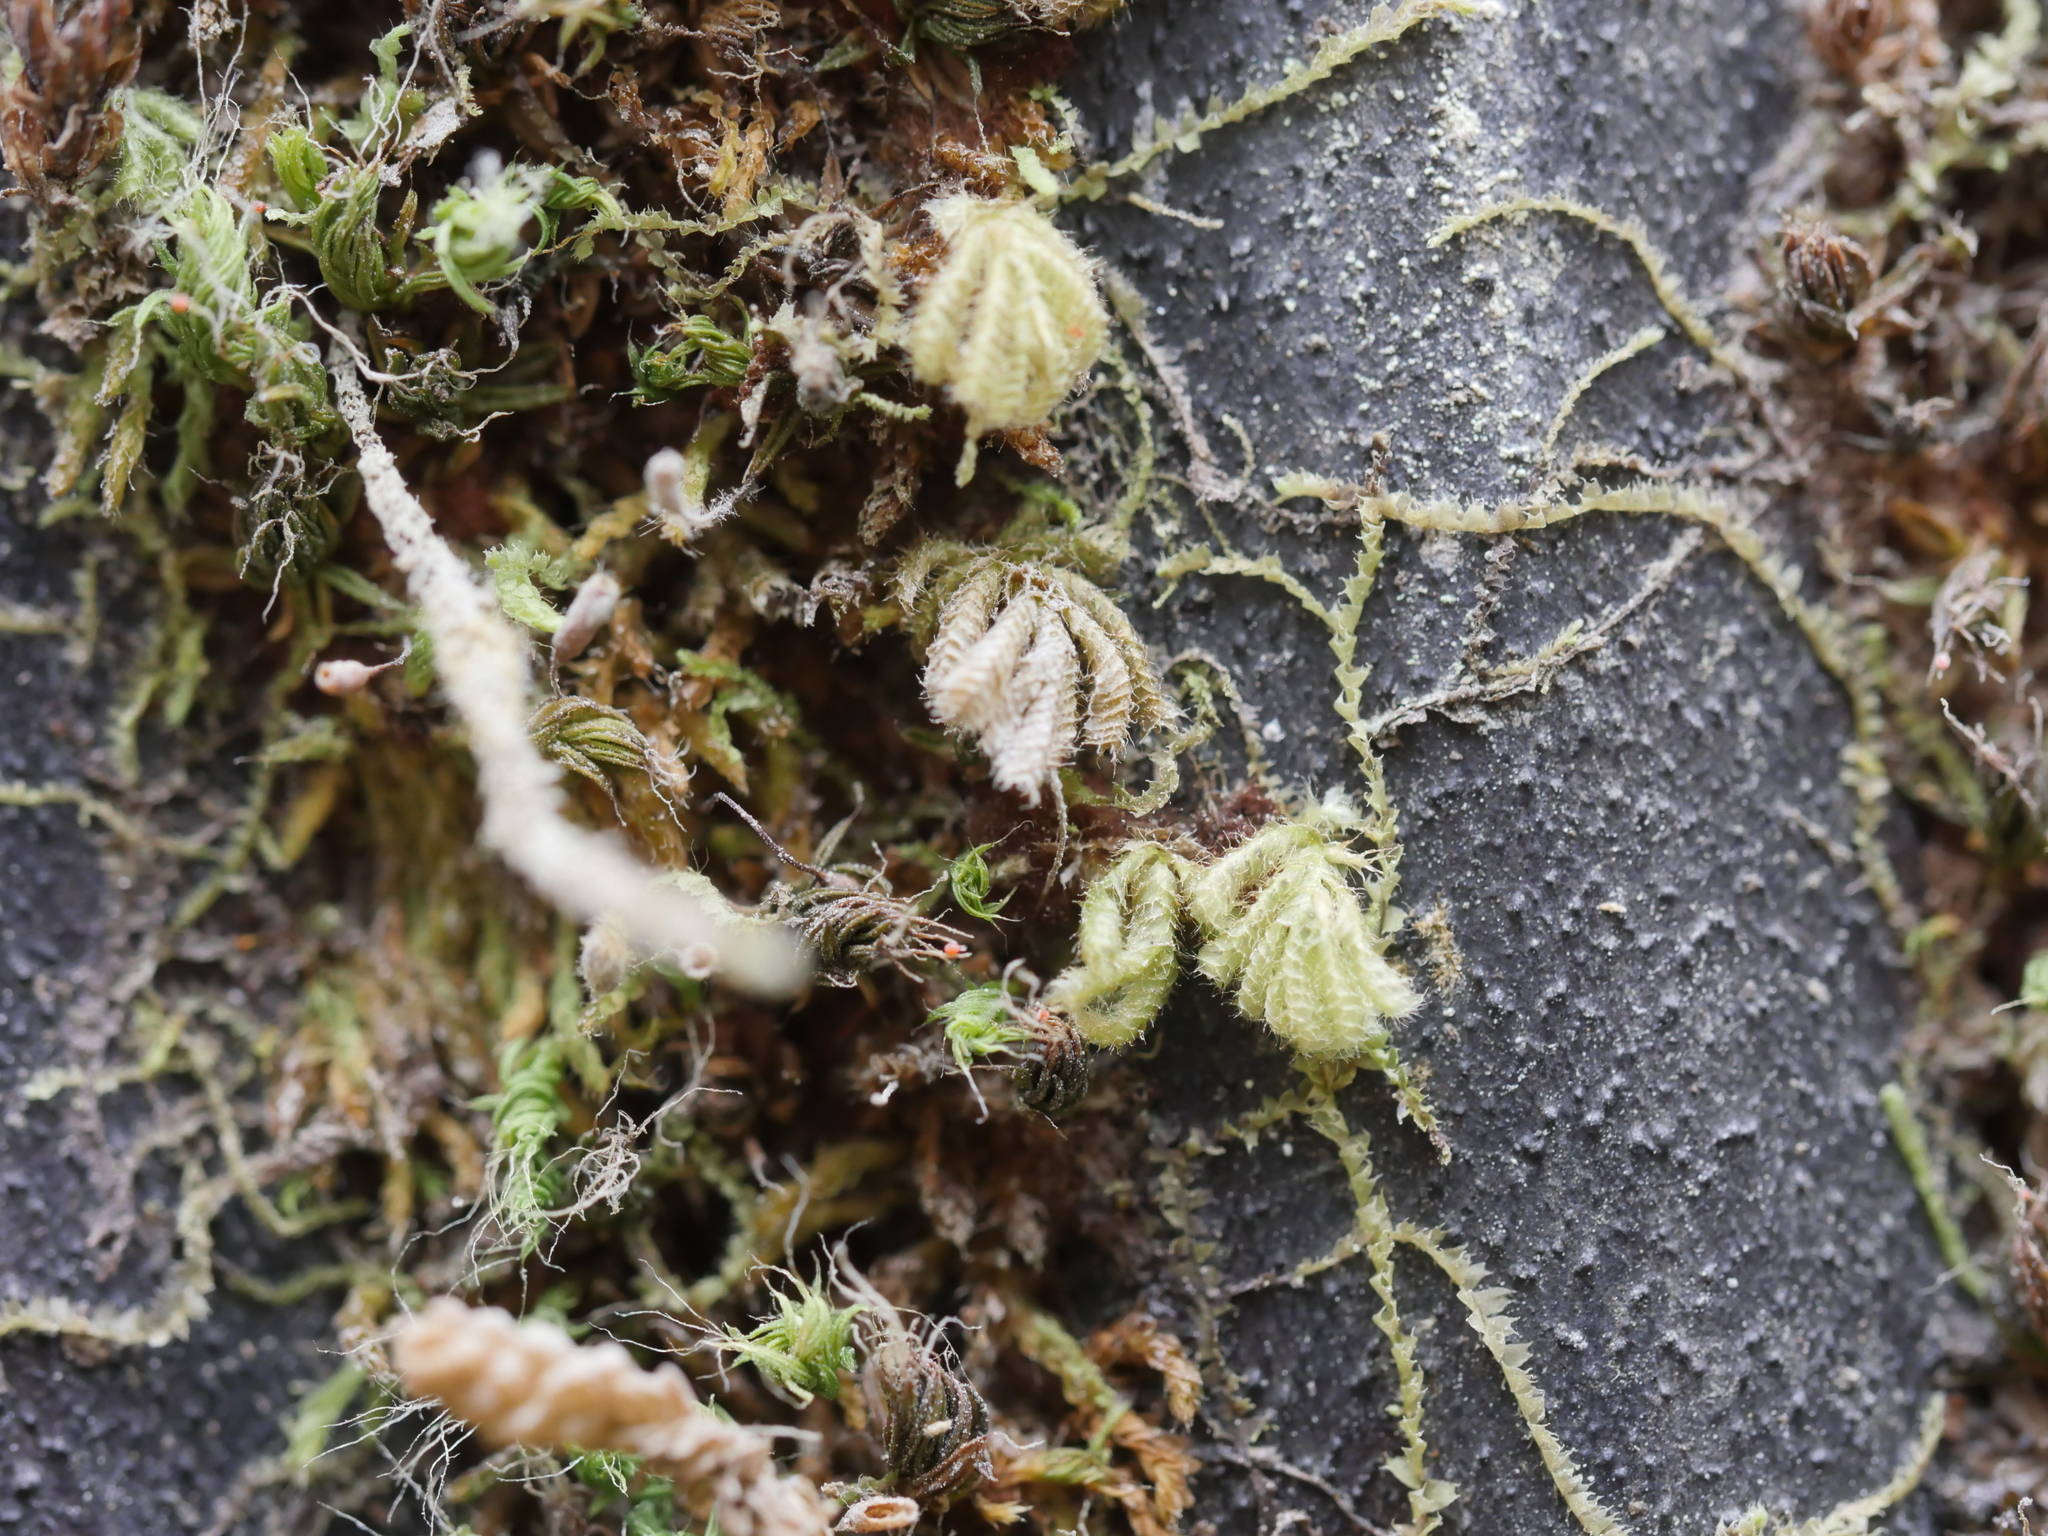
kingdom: Plantae
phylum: Bryophyta
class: Bryopsida
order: Hypopterygiales
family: Hypopterygiaceae
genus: Catharomnion
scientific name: Catharomnion ciliatum
